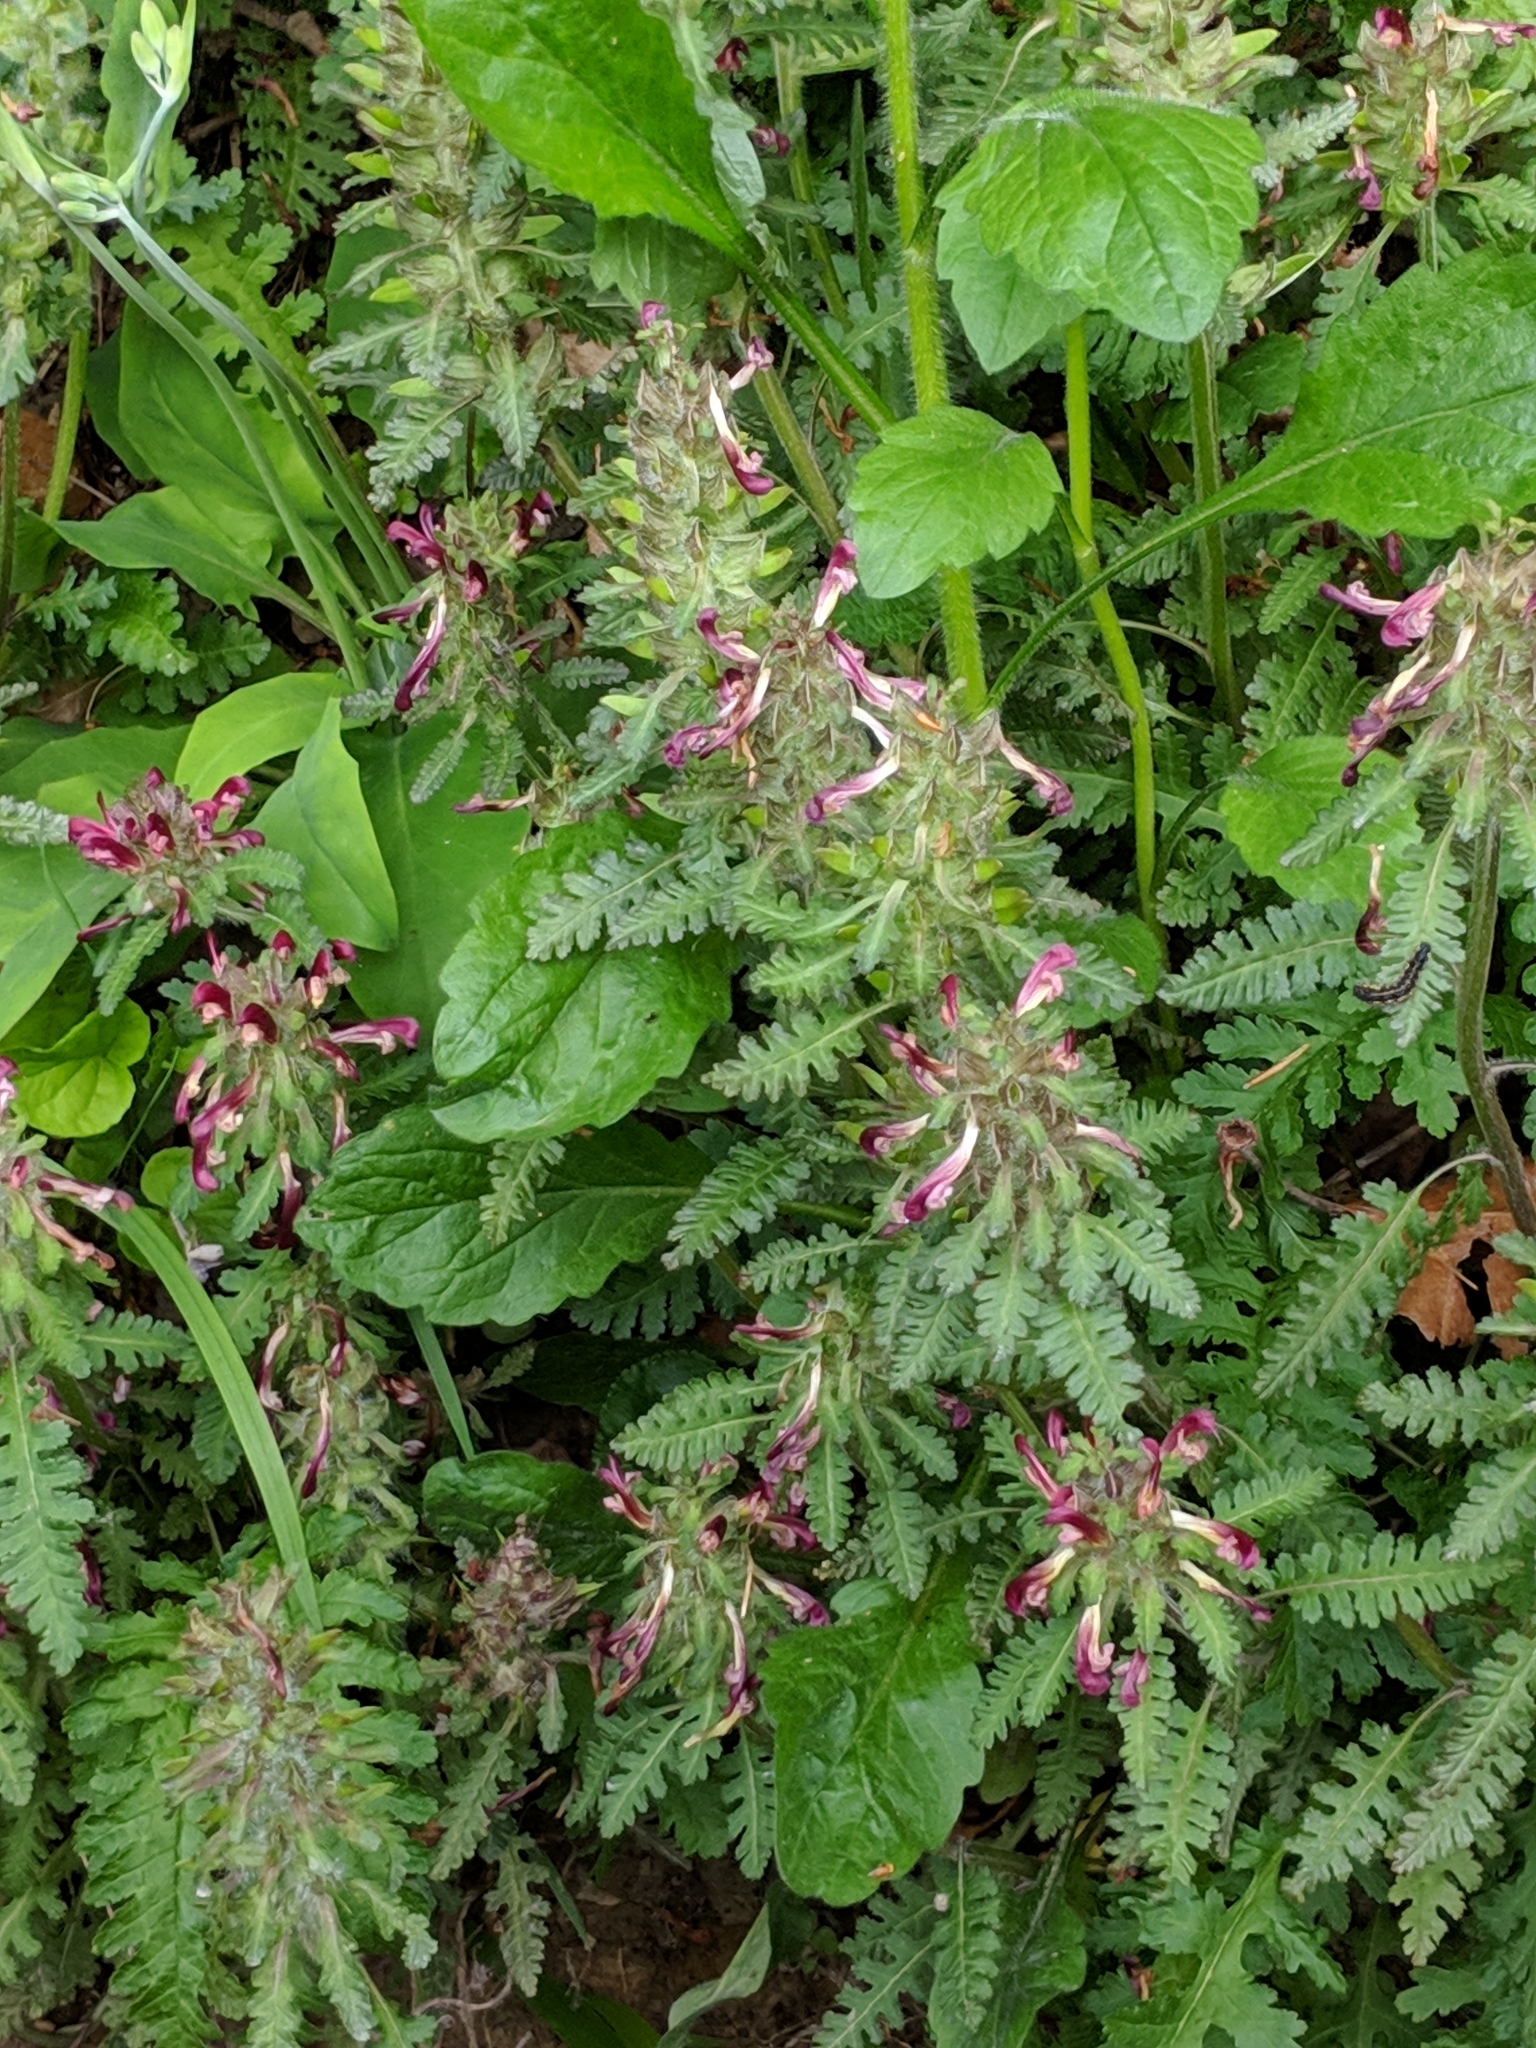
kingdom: Plantae
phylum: Tracheophyta
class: Magnoliopsida
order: Lamiales
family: Orobanchaceae
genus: Pedicularis
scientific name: Pedicularis canadensis
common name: Early lousewort
